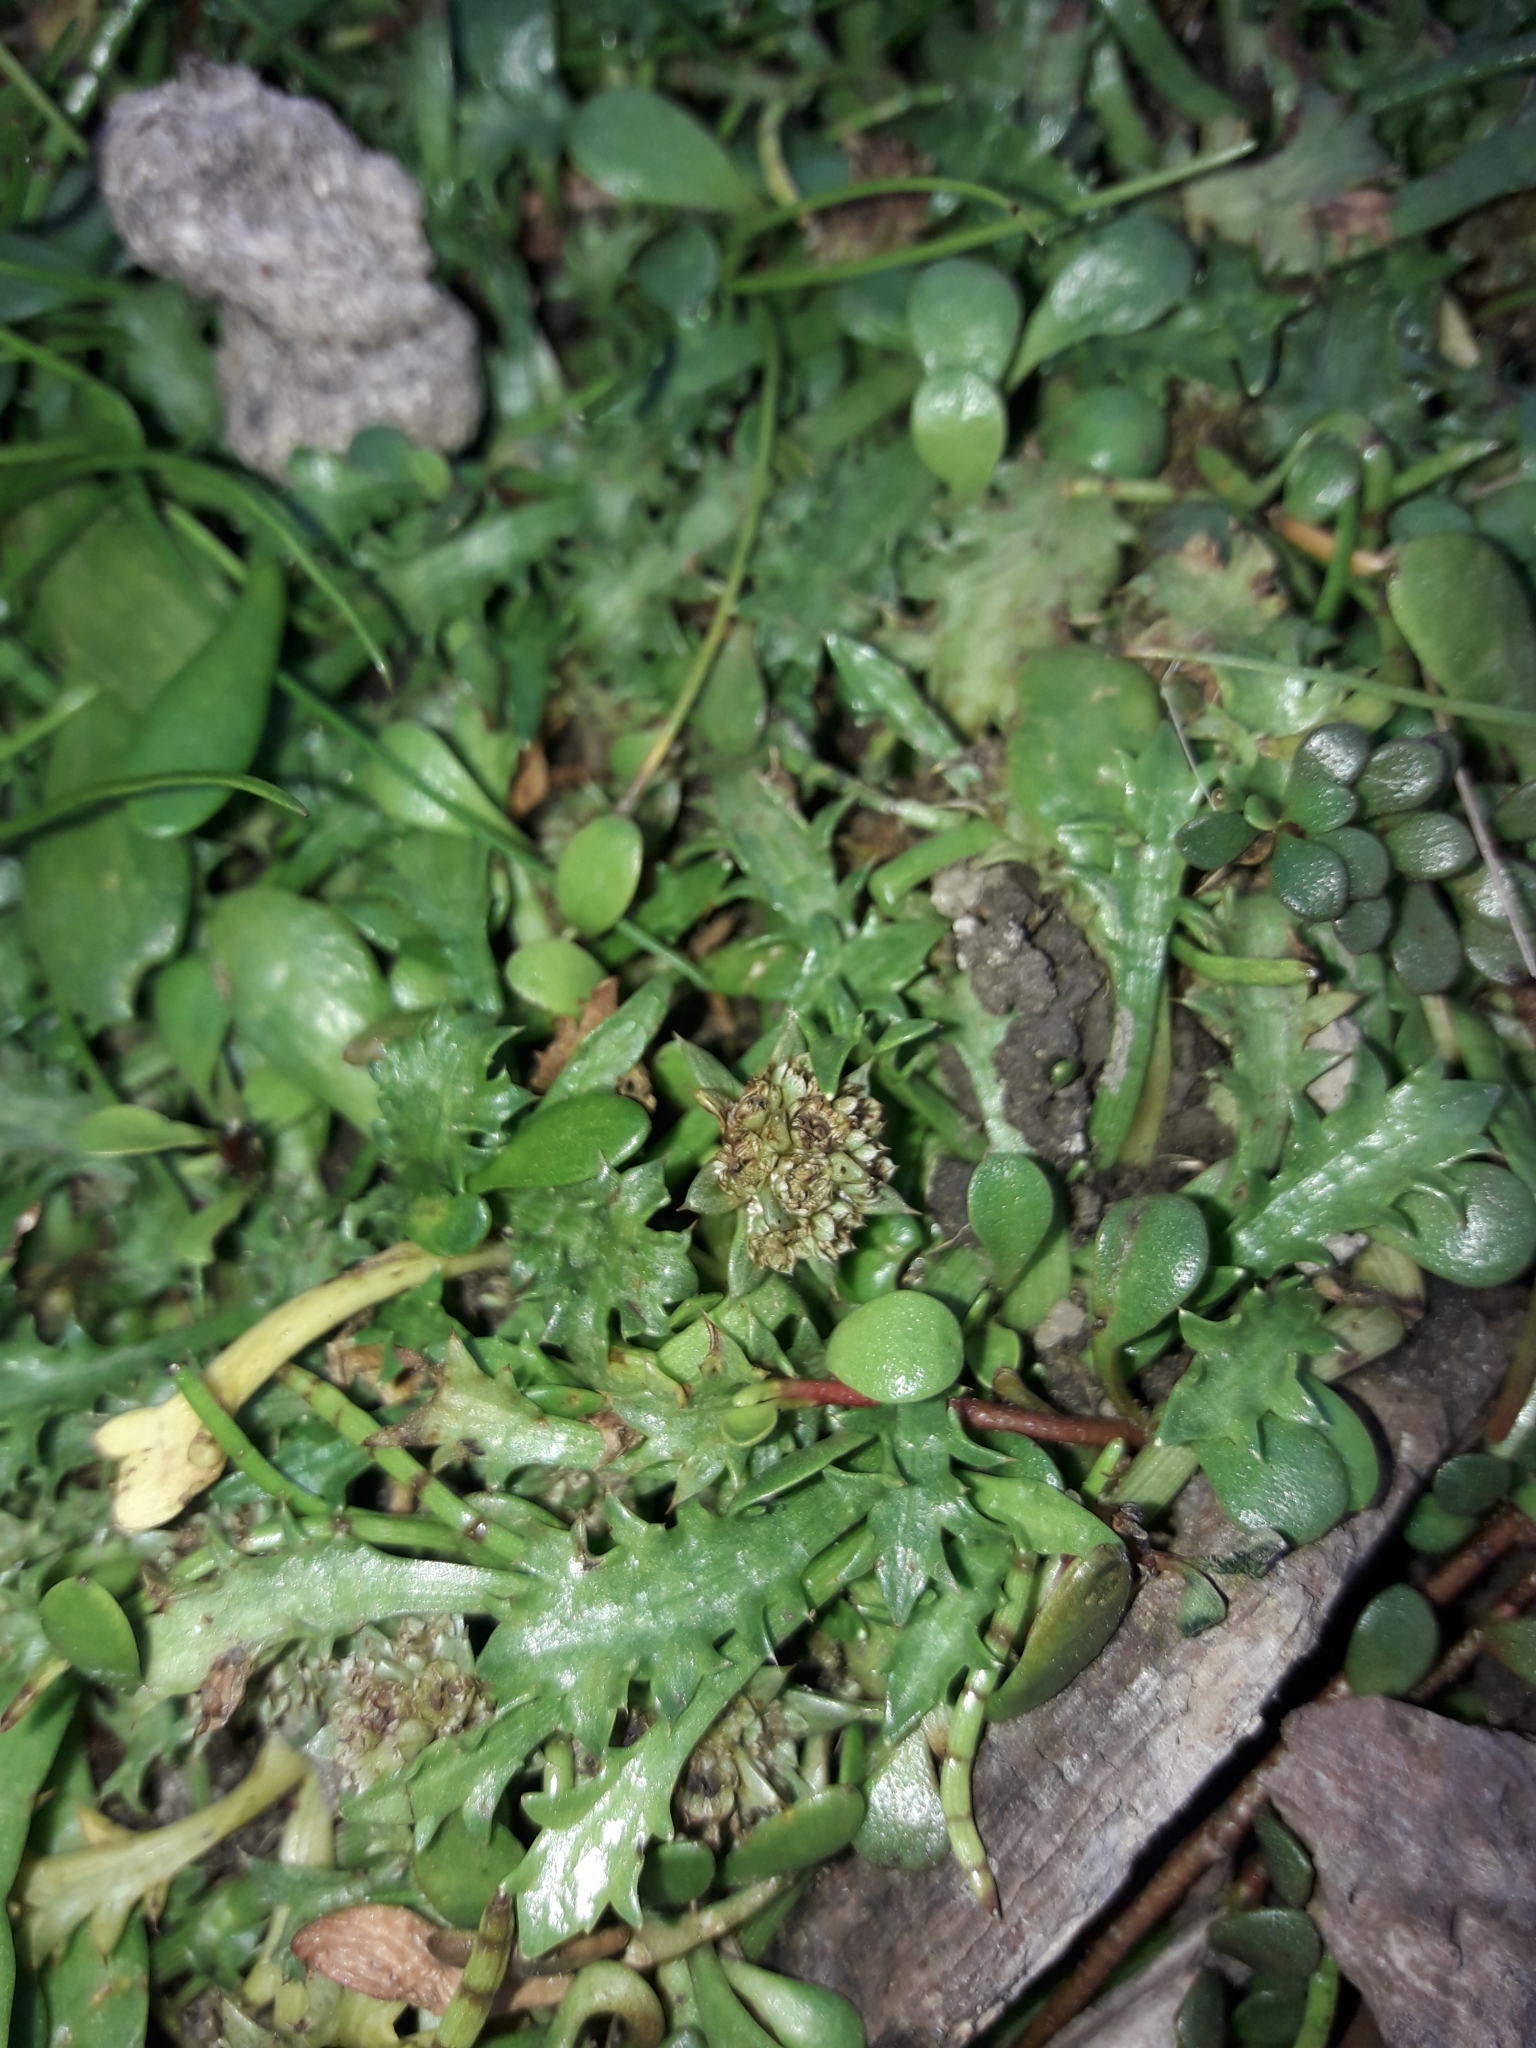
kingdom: Plantae
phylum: Tracheophyta
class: Magnoliopsida
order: Apiales
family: Apiaceae
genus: Eryngium
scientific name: Eryngium vesiculosum
